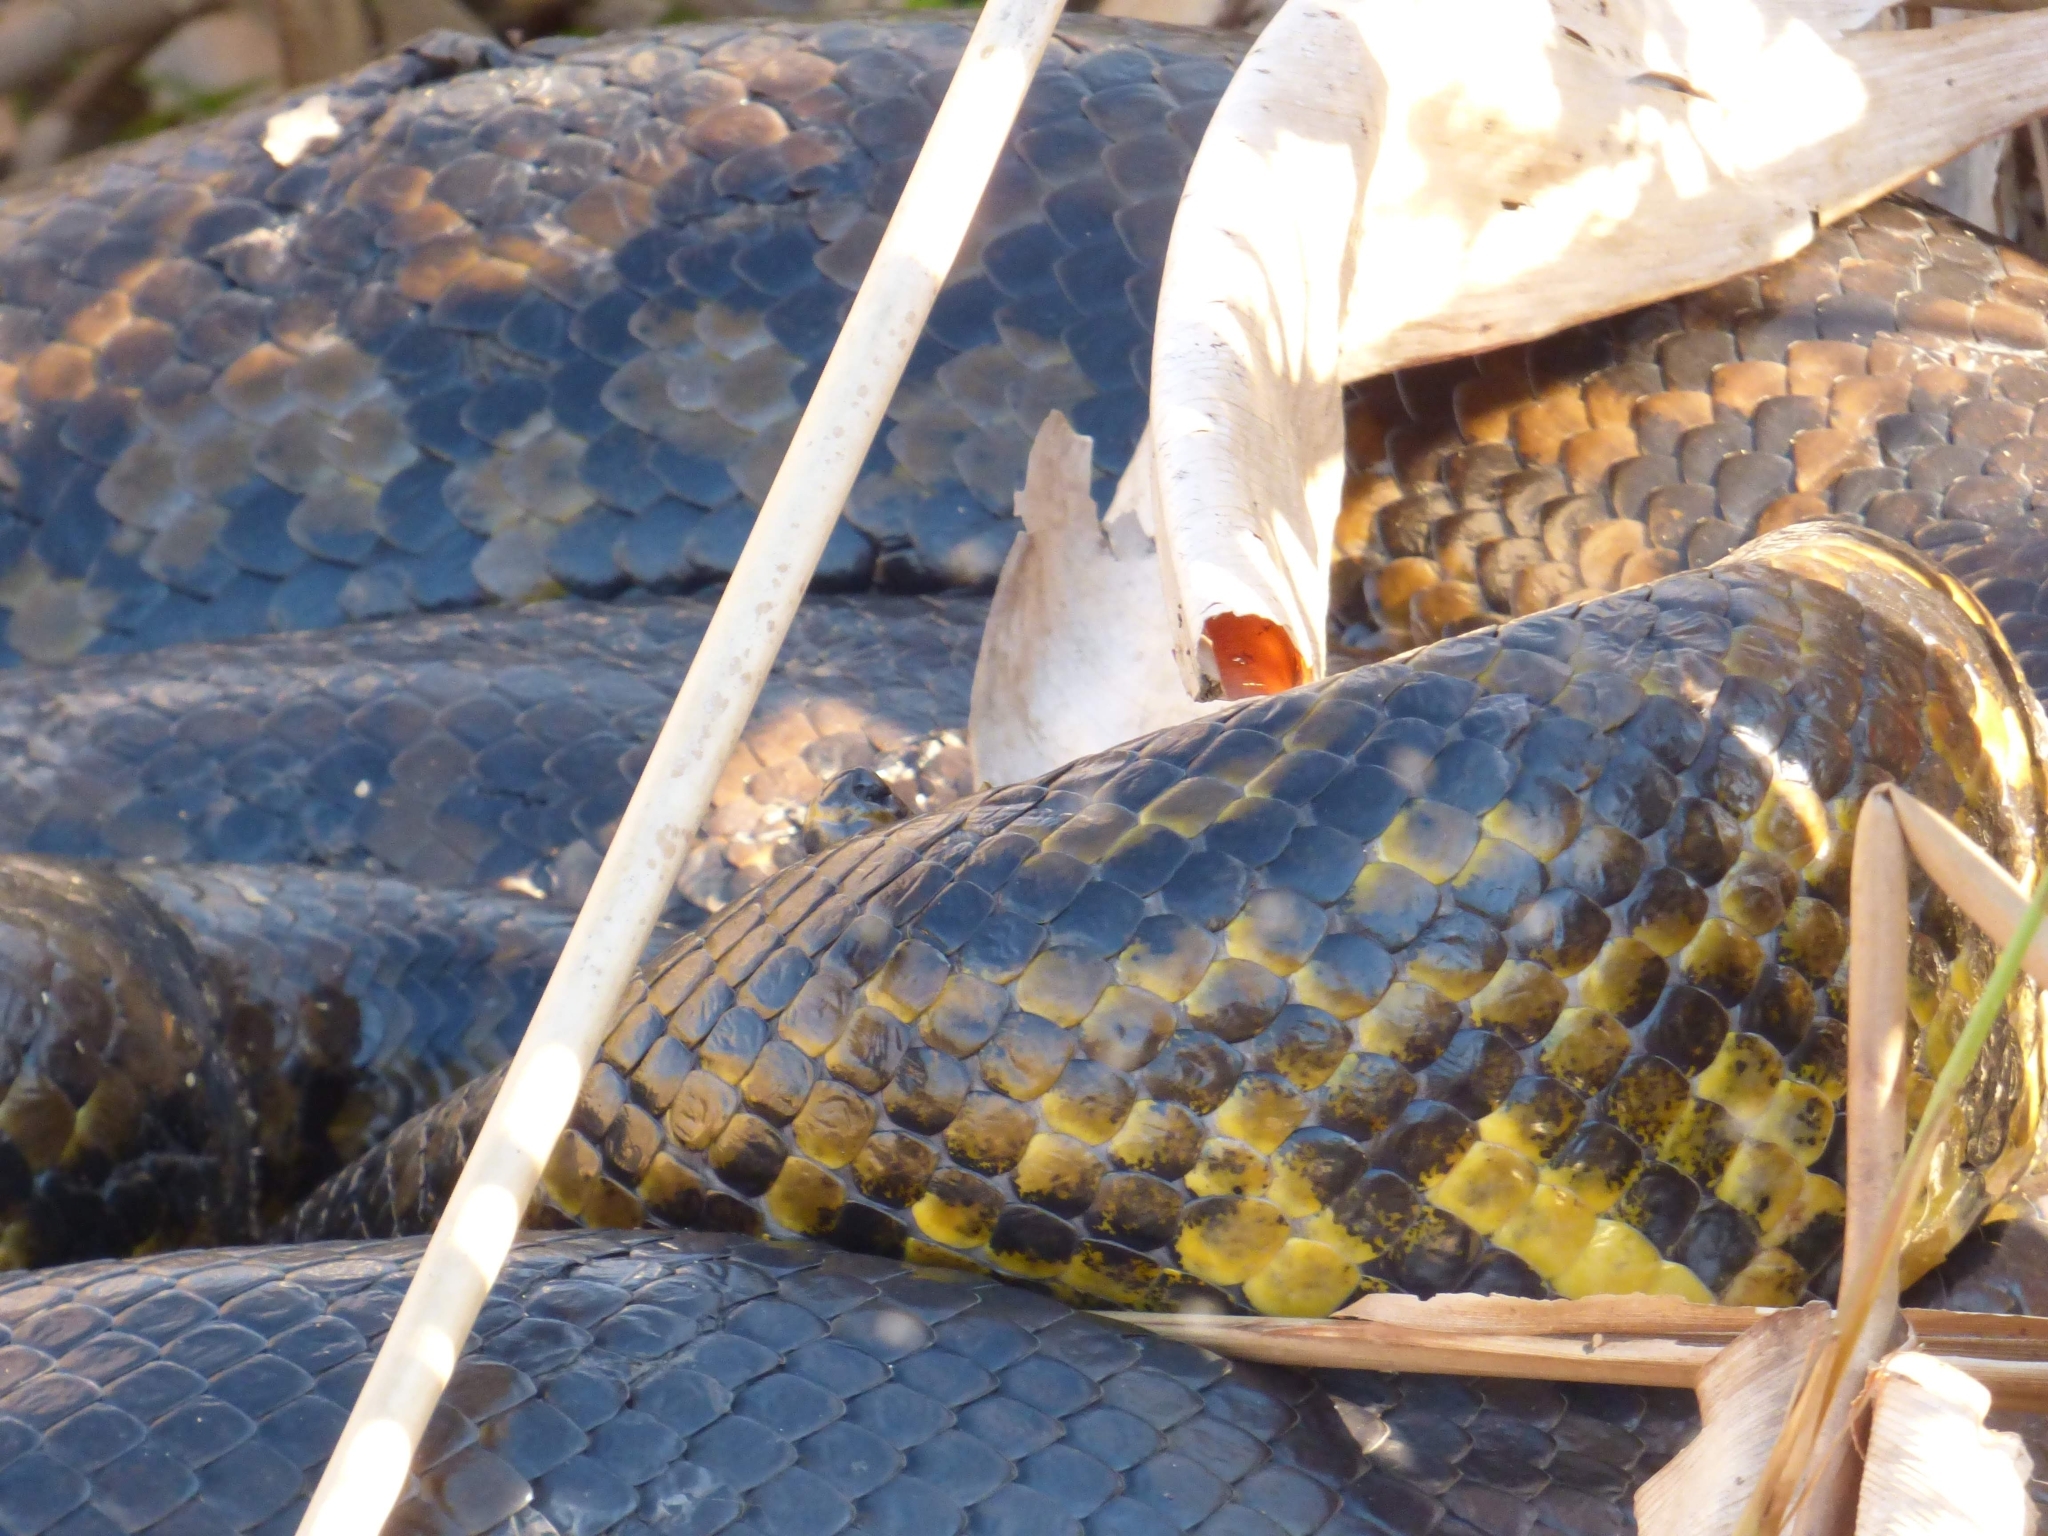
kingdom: Animalia
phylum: Chordata
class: Squamata
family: Boidae
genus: Eunectes
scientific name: Eunectes notaeus
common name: Yellow anaconda
